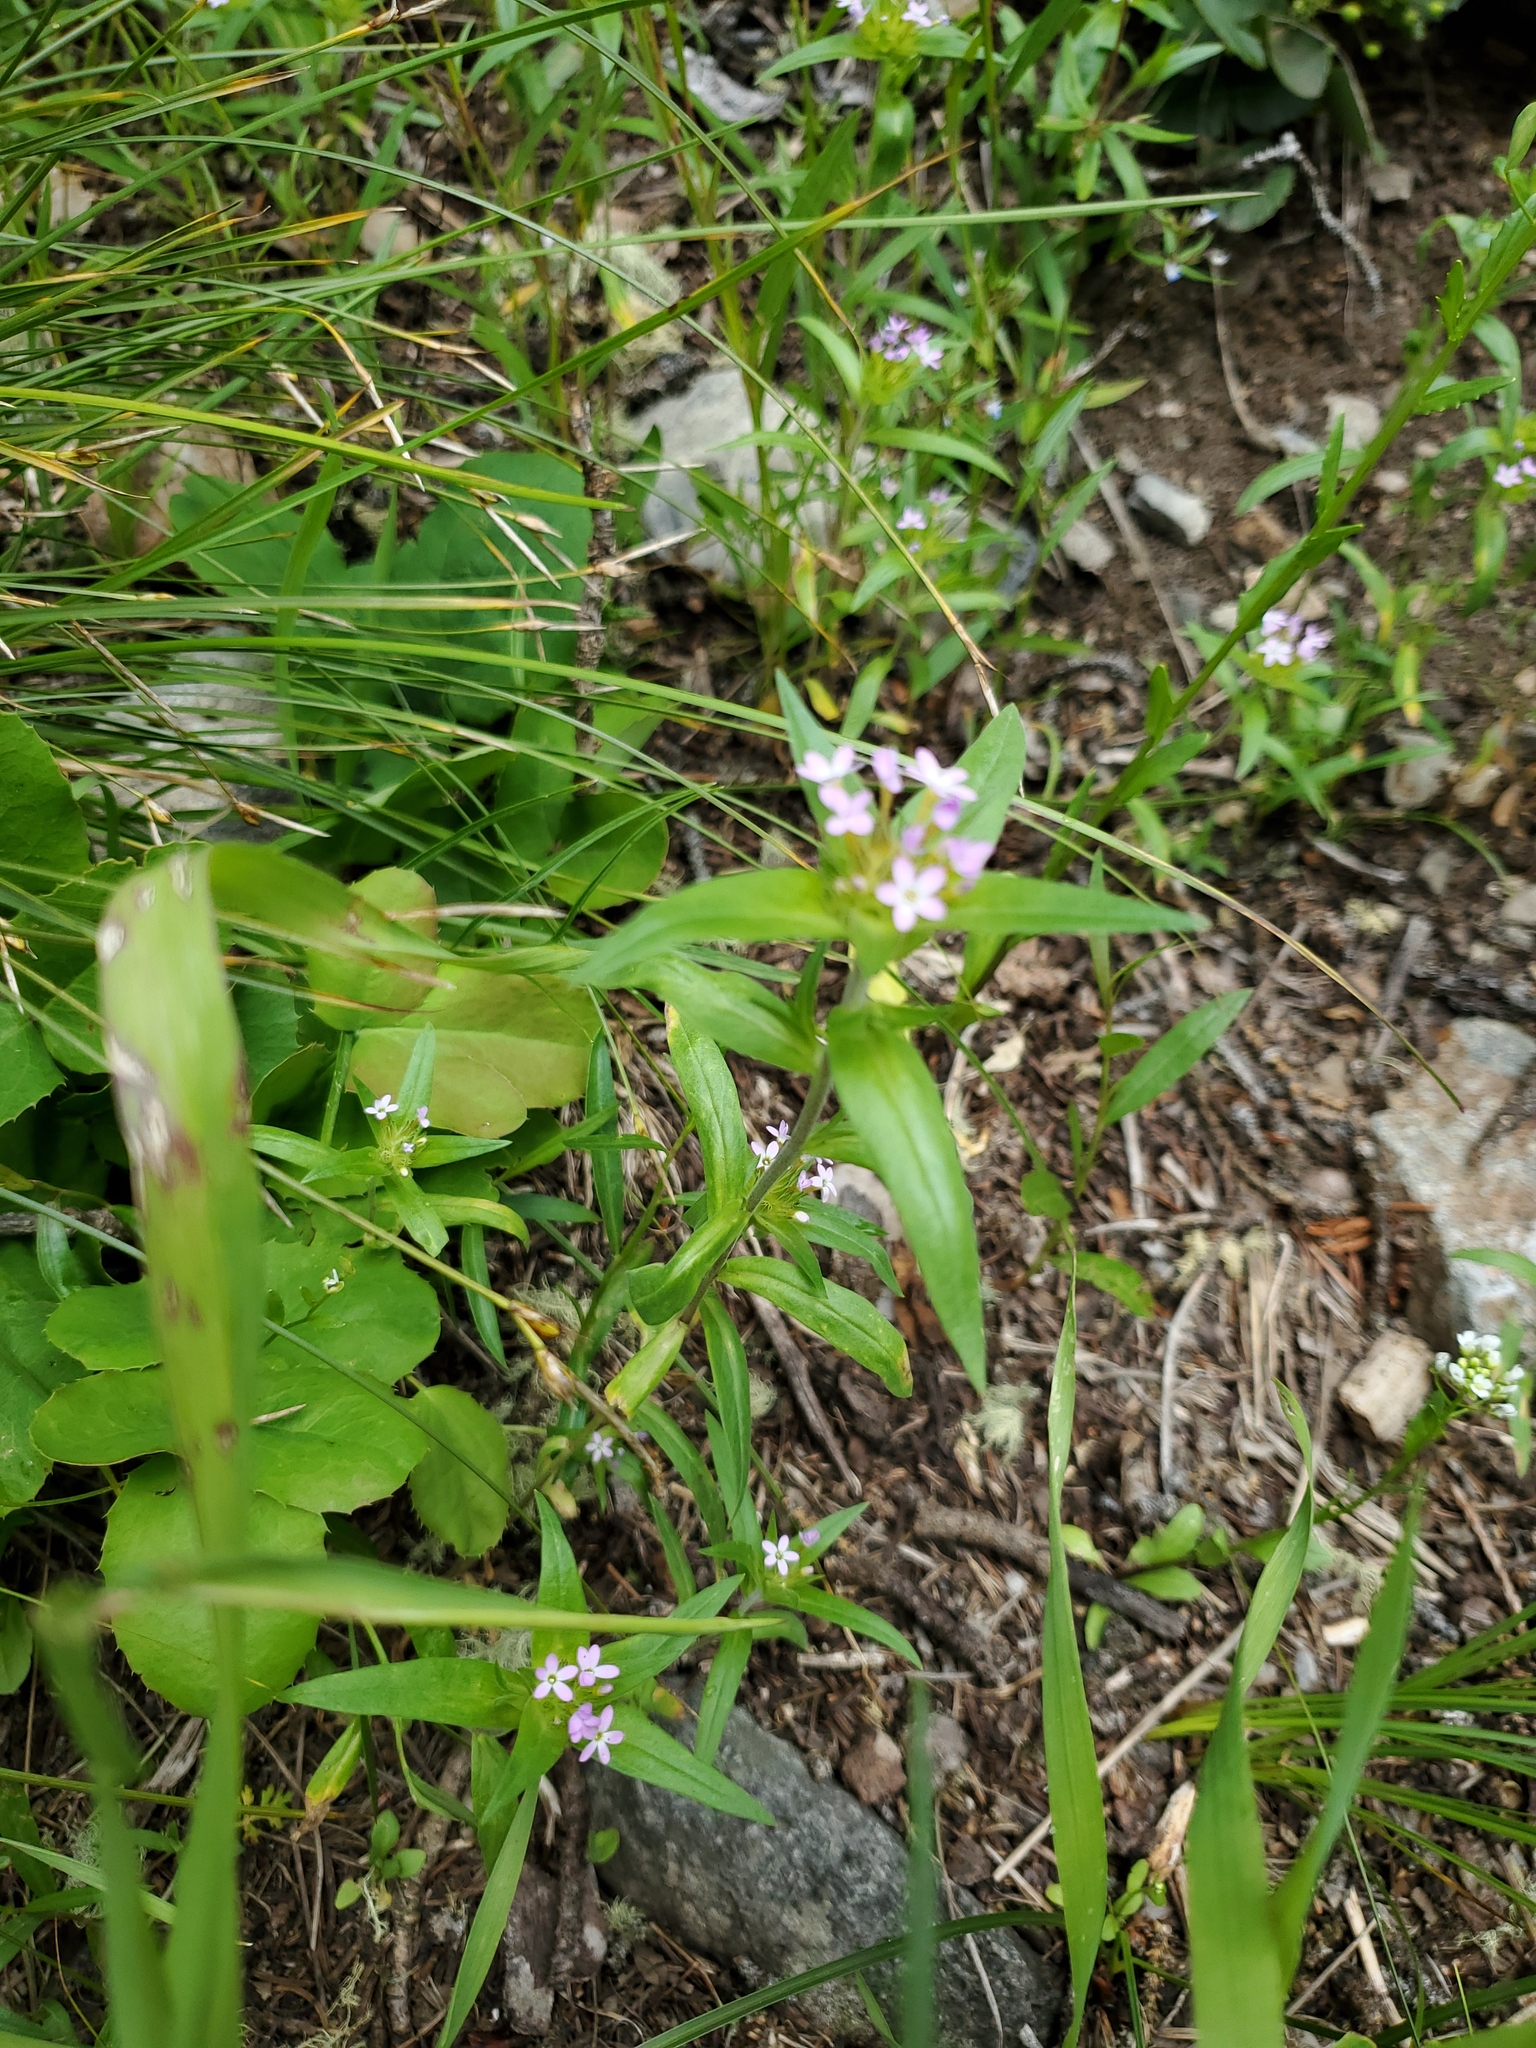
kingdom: Plantae
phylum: Tracheophyta
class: Magnoliopsida
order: Ericales
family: Polemoniaceae
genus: Collomia
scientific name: Collomia linearis
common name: Tiny trumpet
